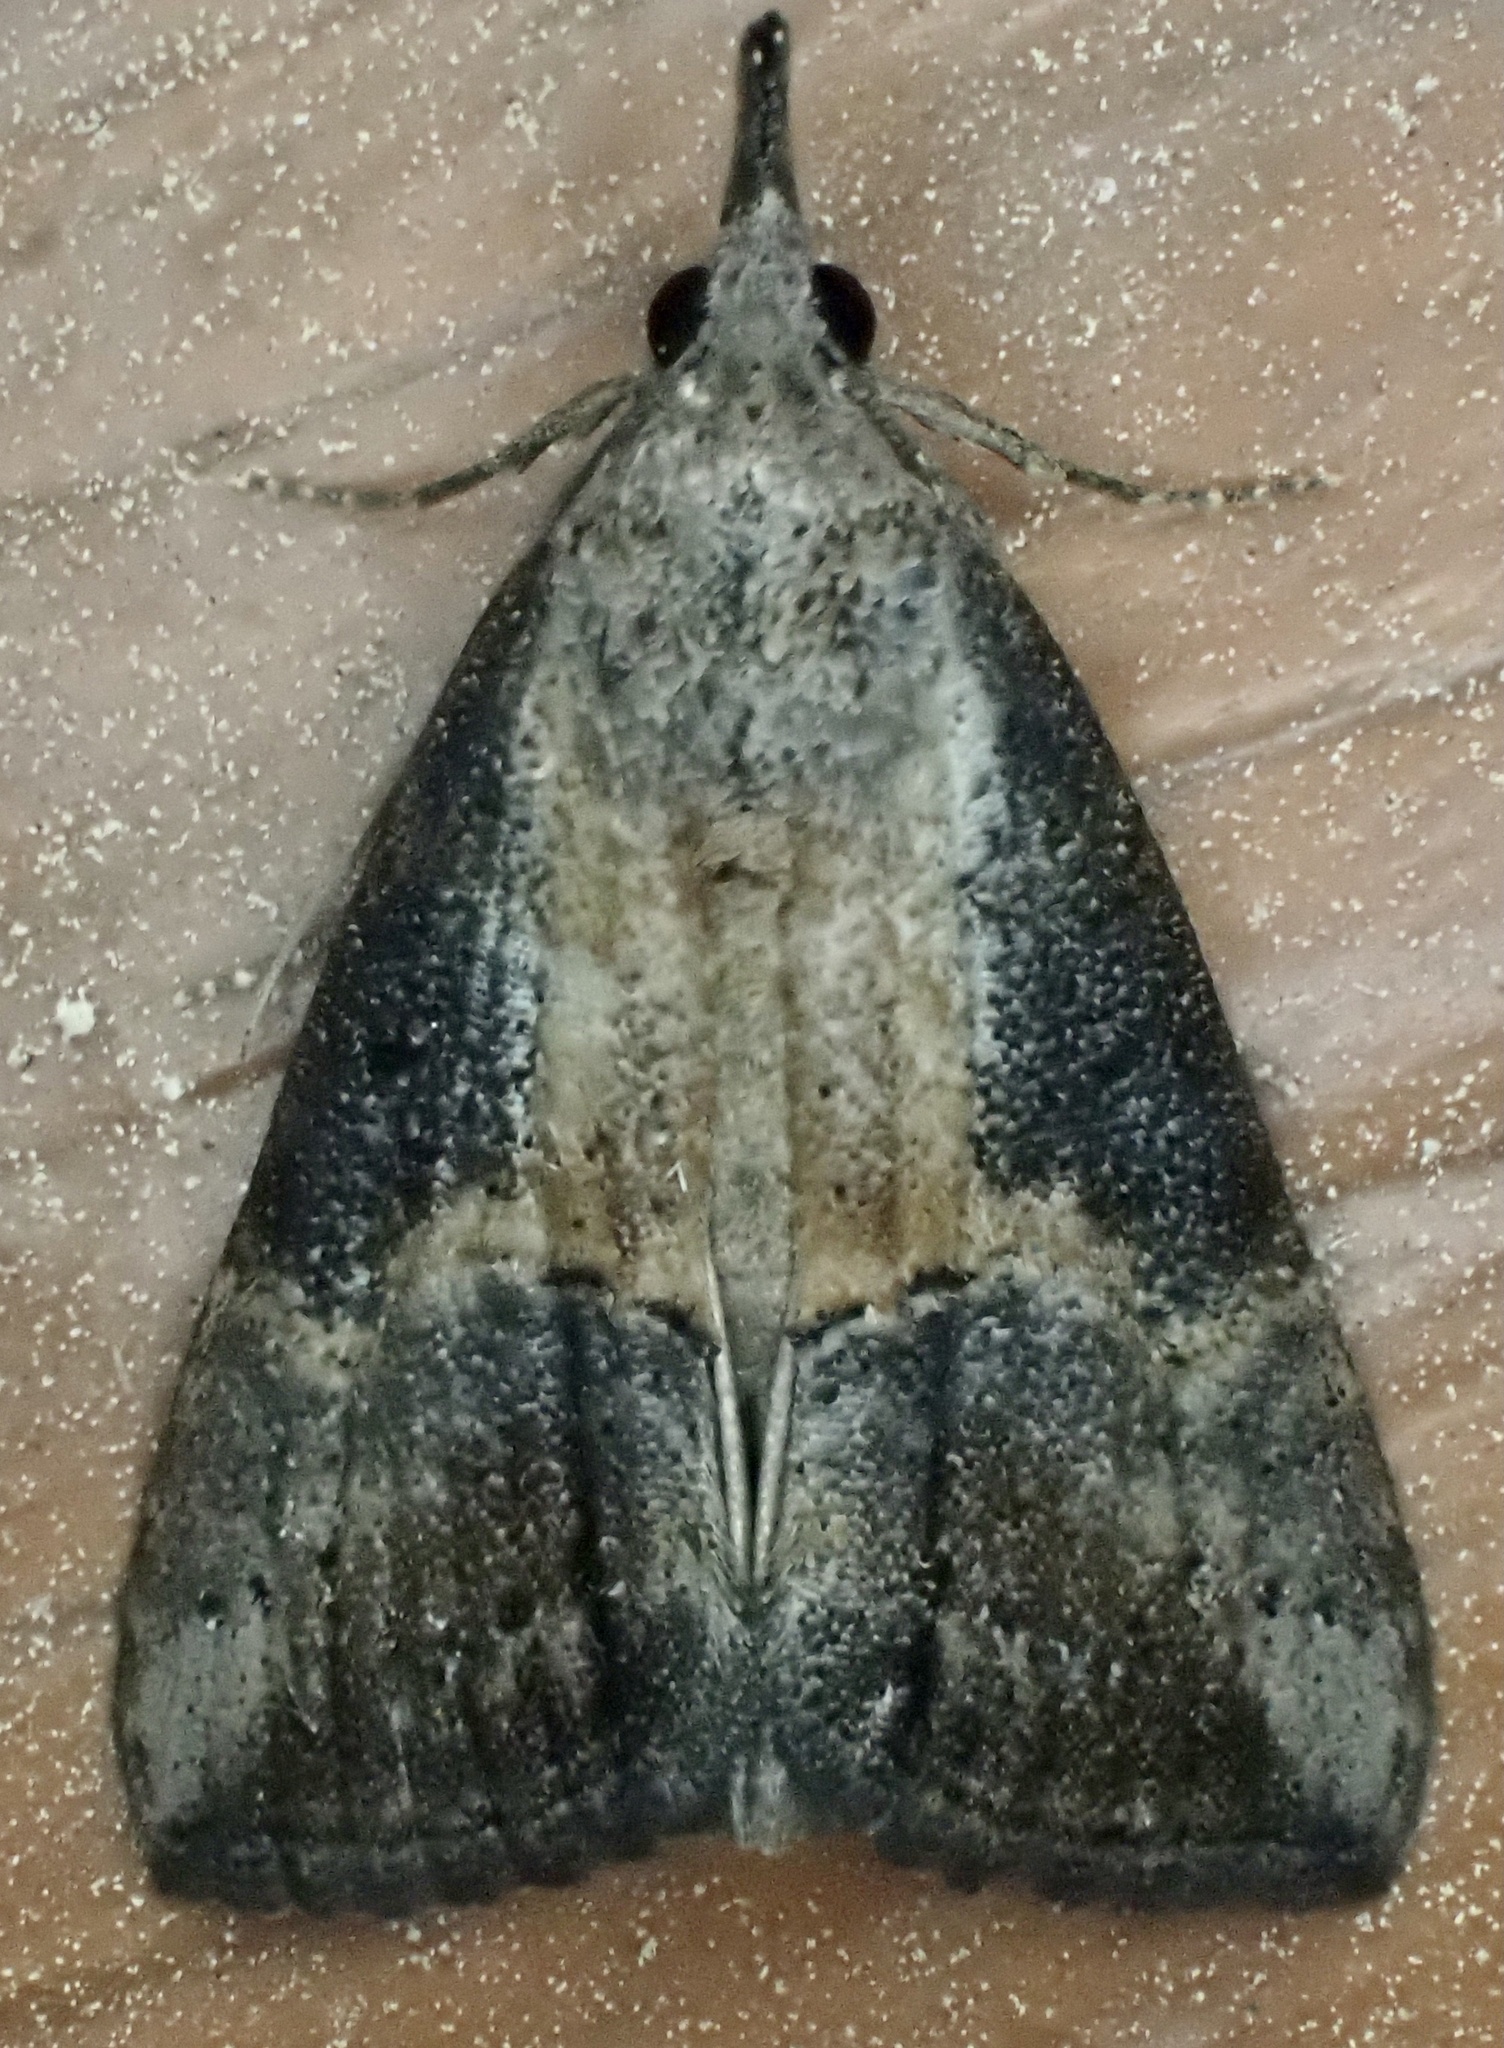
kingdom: Animalia
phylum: Arthropoda
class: Insecta
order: Lepidoptera
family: Erebidae
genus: Hypena
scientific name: Hypena scabra
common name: Green cloverworm
